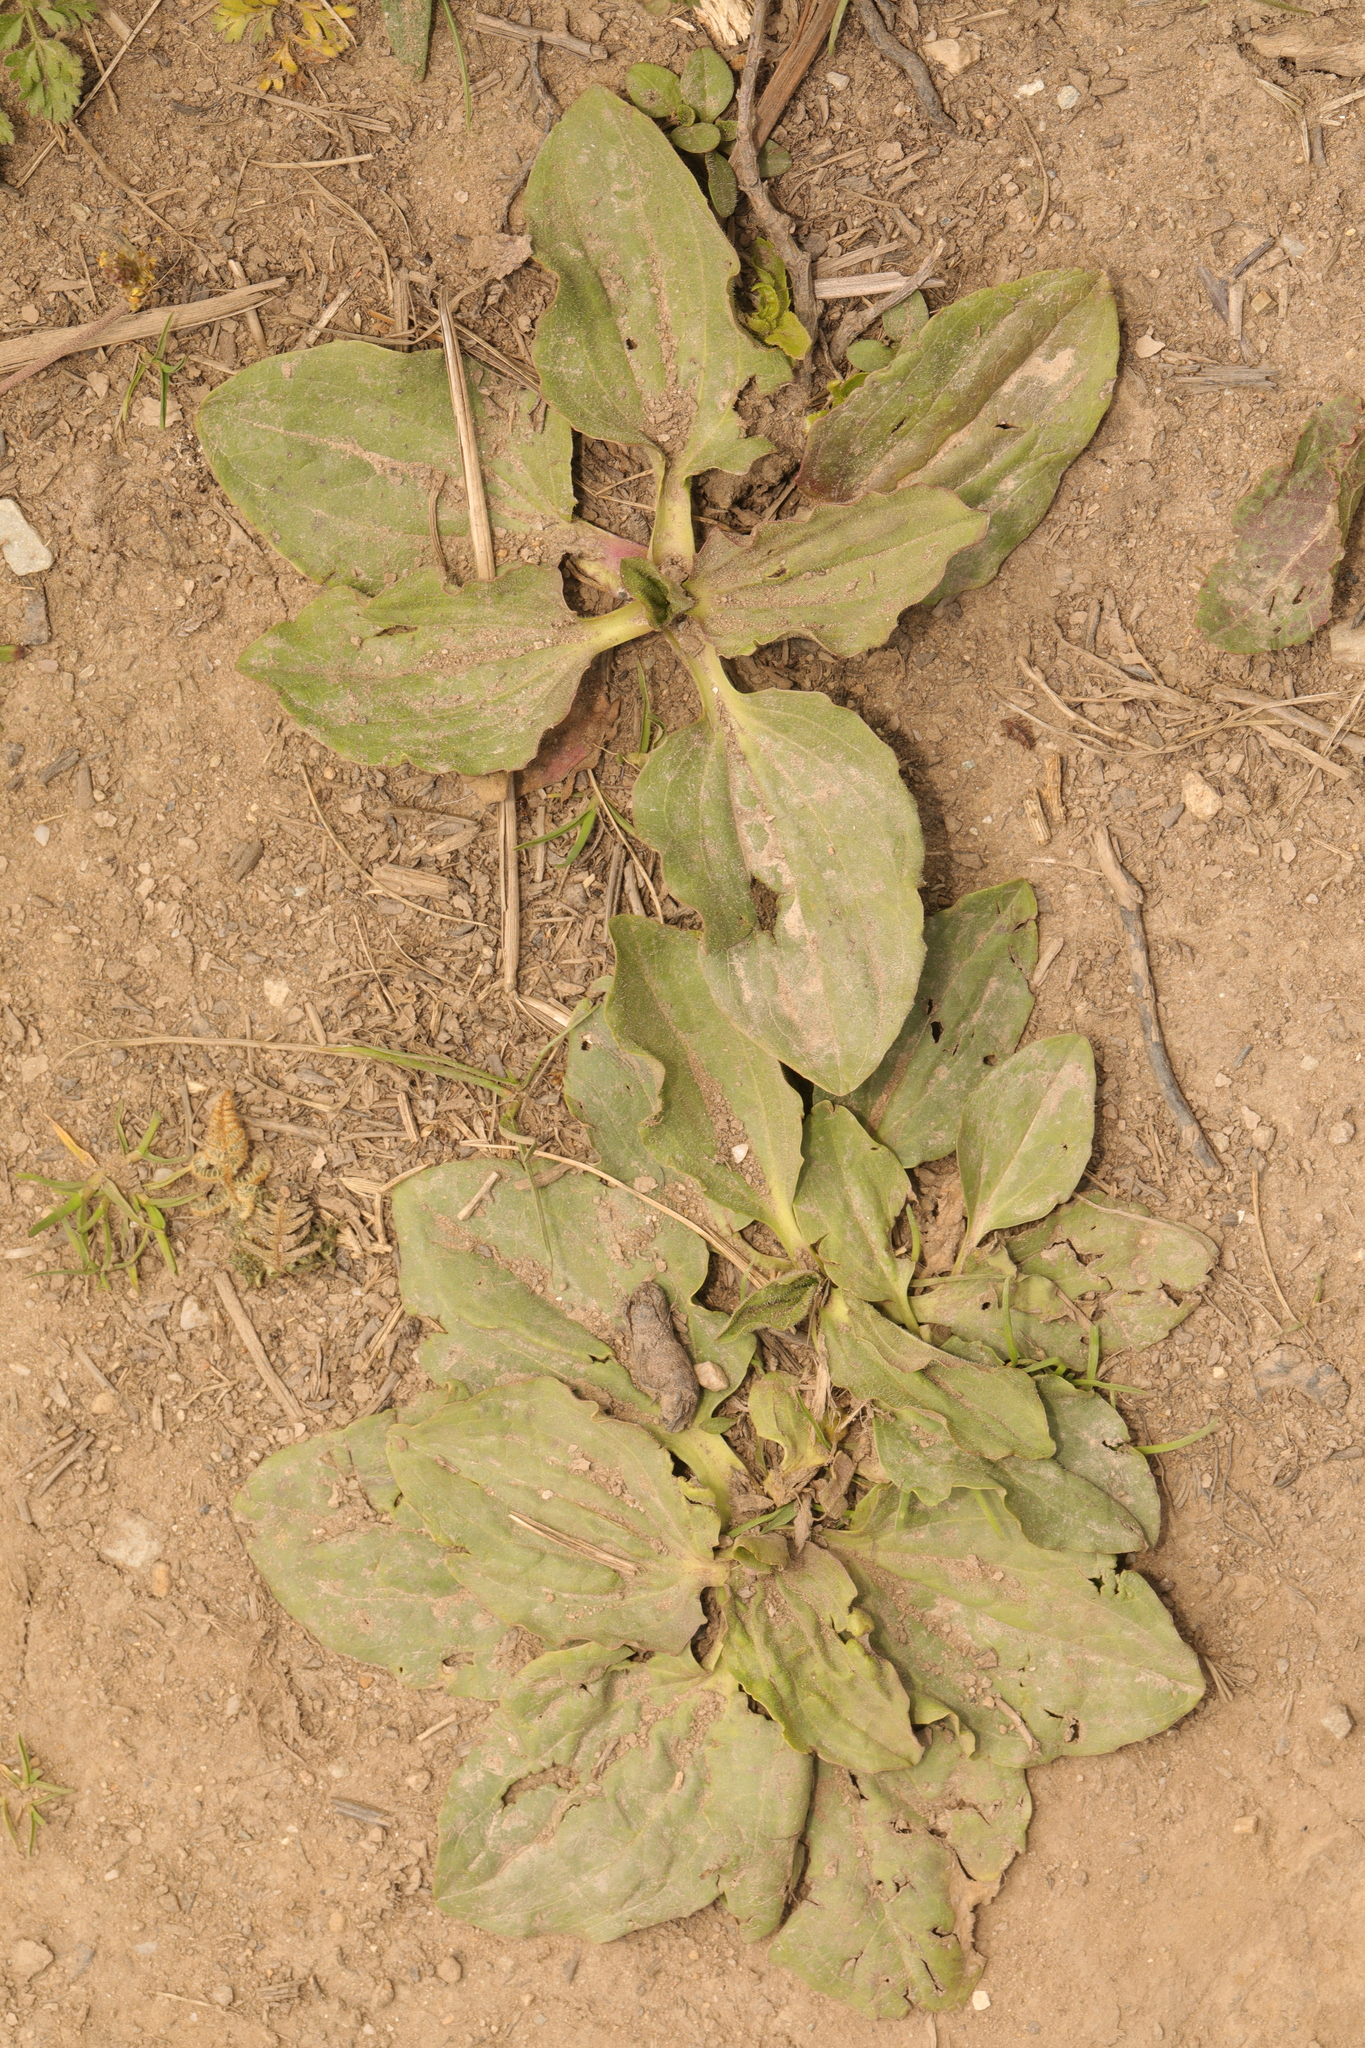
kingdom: Plantae
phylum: Tracheophyta
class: Magnoliopsida
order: Lamiales
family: Plantaginaceae
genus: Plantago
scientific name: Plantago major
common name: Common plantain
